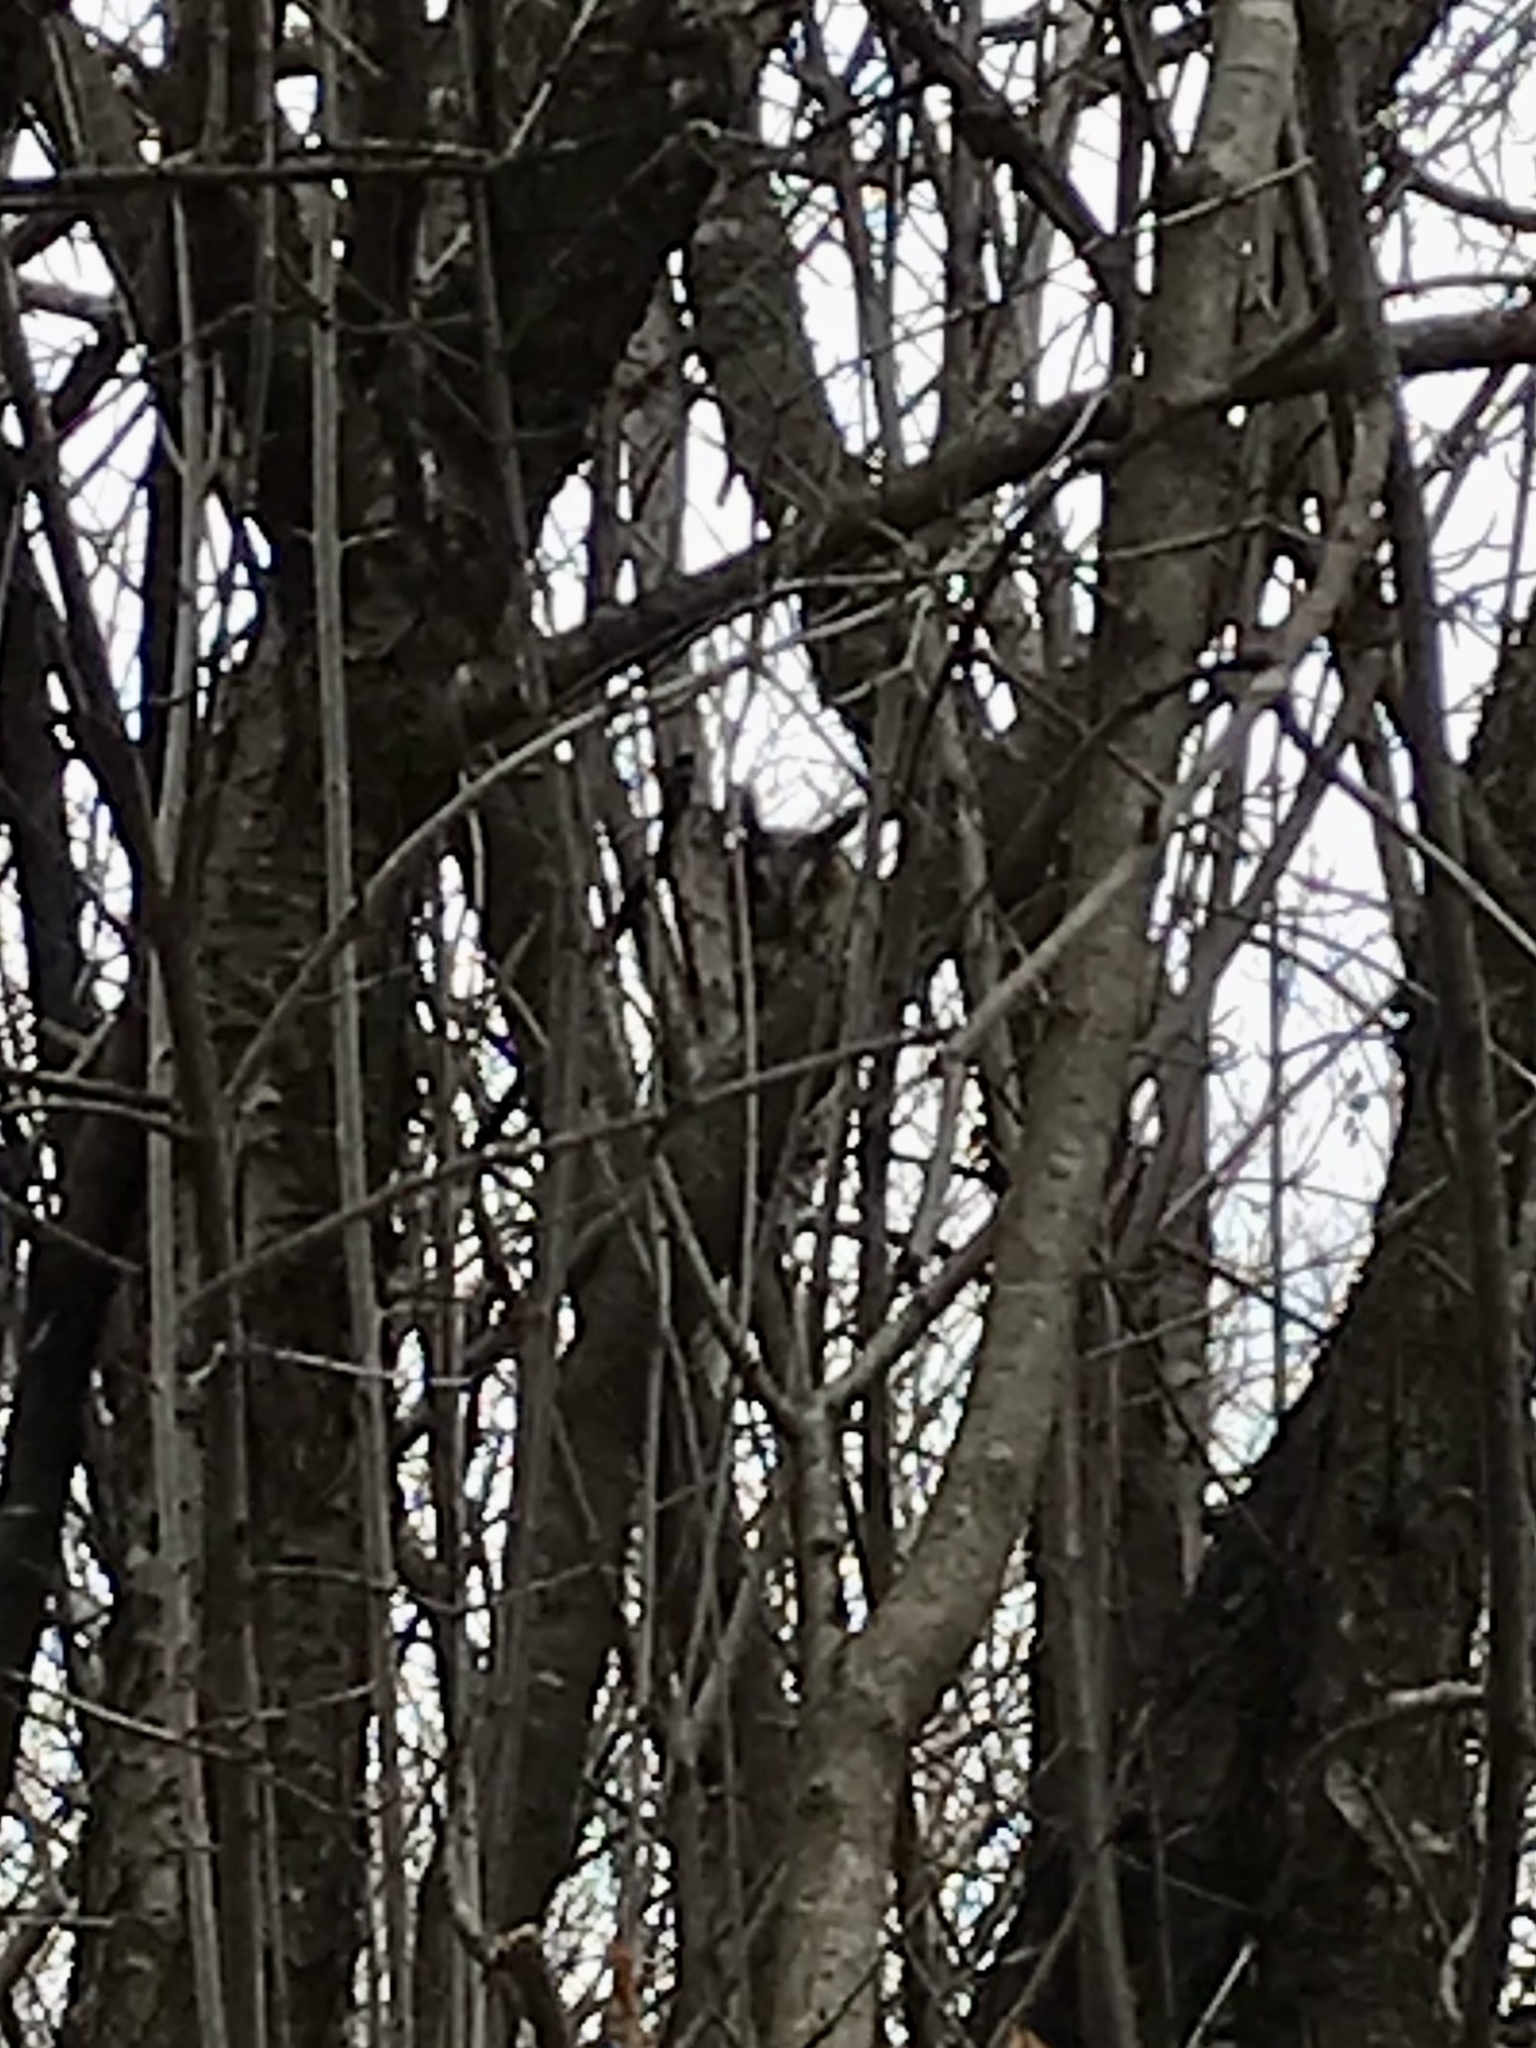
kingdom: Animalia
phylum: Chordata
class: Aves
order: Strigiformes
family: Strigidae
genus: Asio
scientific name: Asio otus
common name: Long-eared owl
